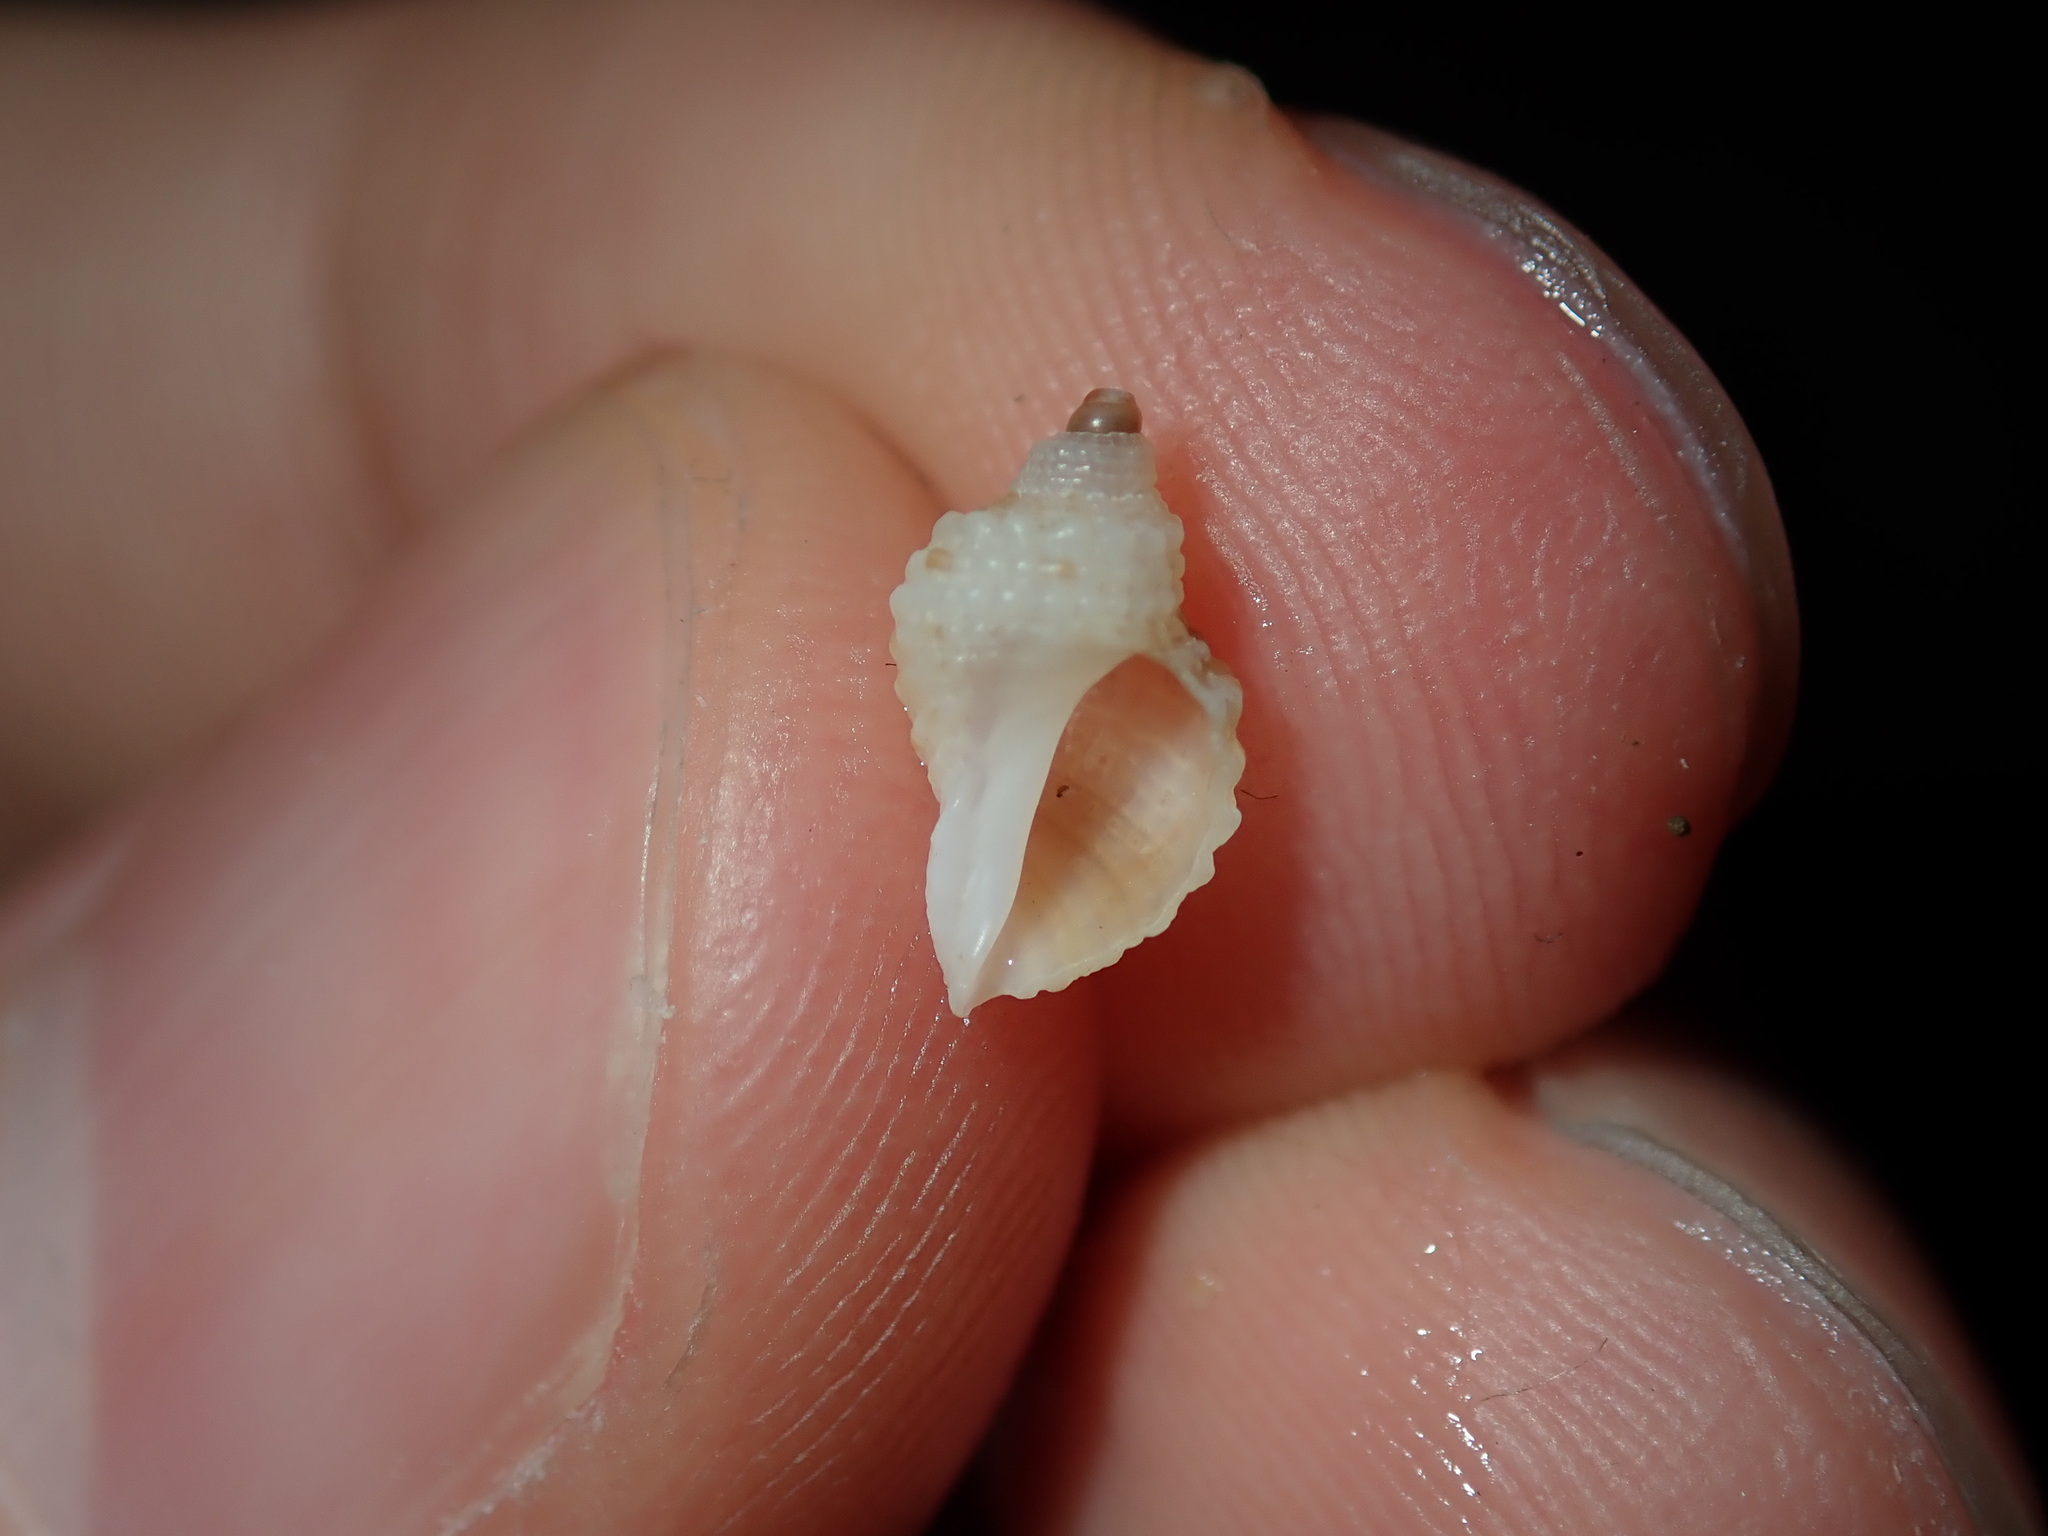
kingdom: Animalia
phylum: Mollusca
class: Gastropoda
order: Neogastropoda
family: Muricidae
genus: Dicathais
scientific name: Dicathais orbita
